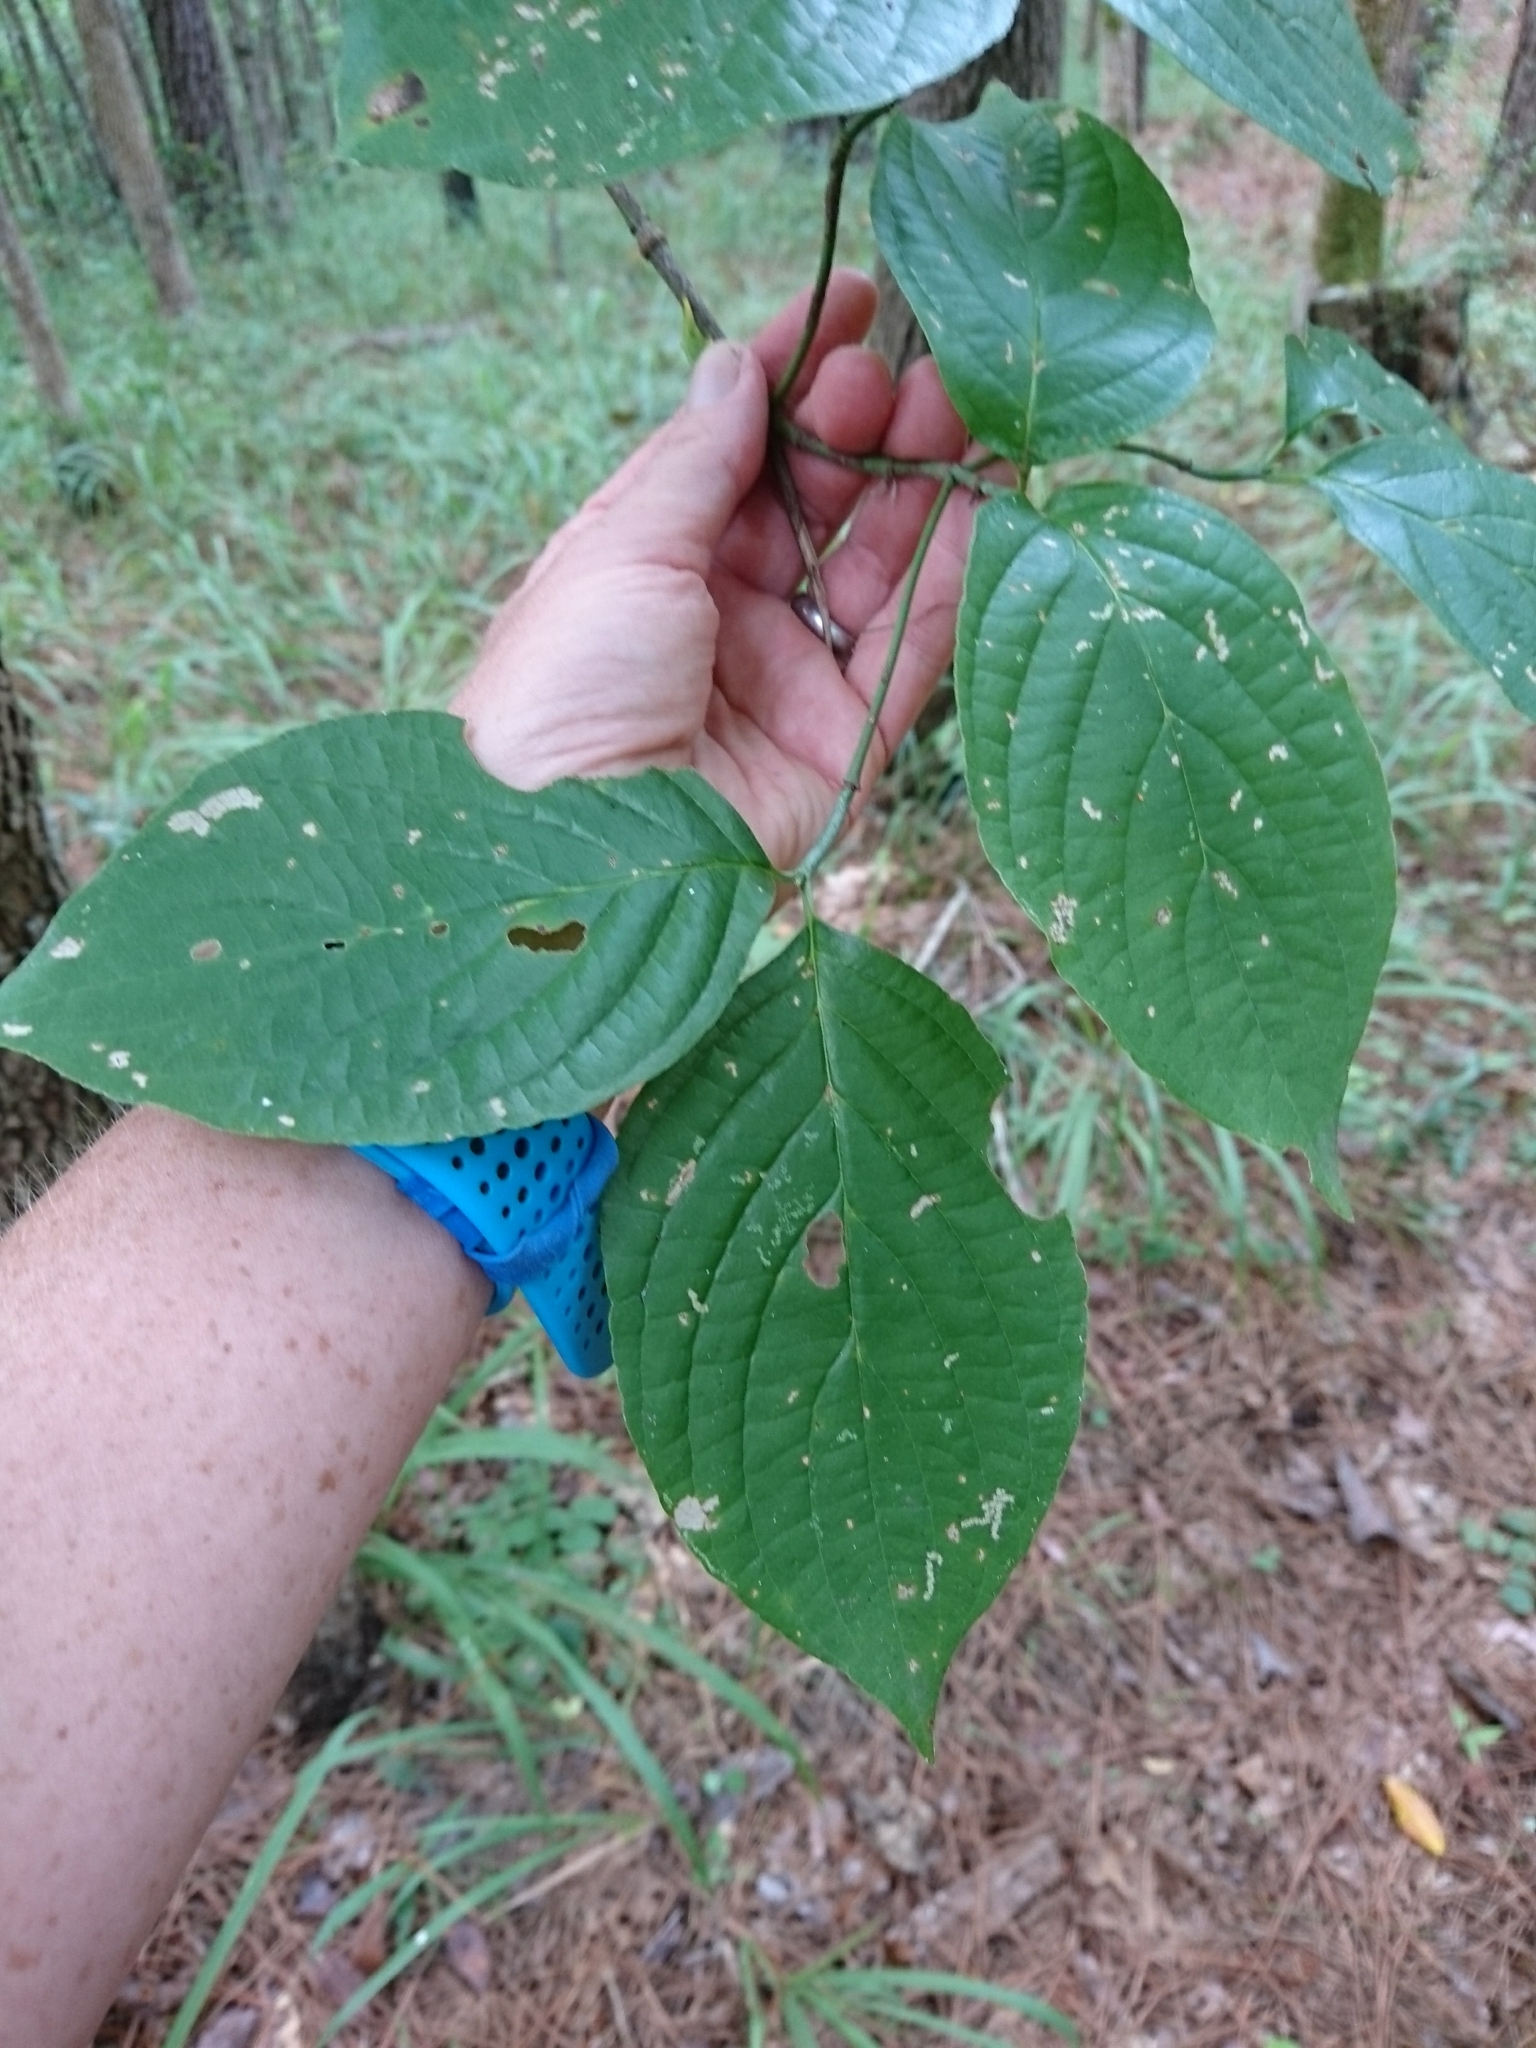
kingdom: Plantae
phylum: Tracheophyta
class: Magnoliopsida
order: Cornales
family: Cornaceae
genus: Cornus
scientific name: Cornus florida
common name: Flowering dogwood
